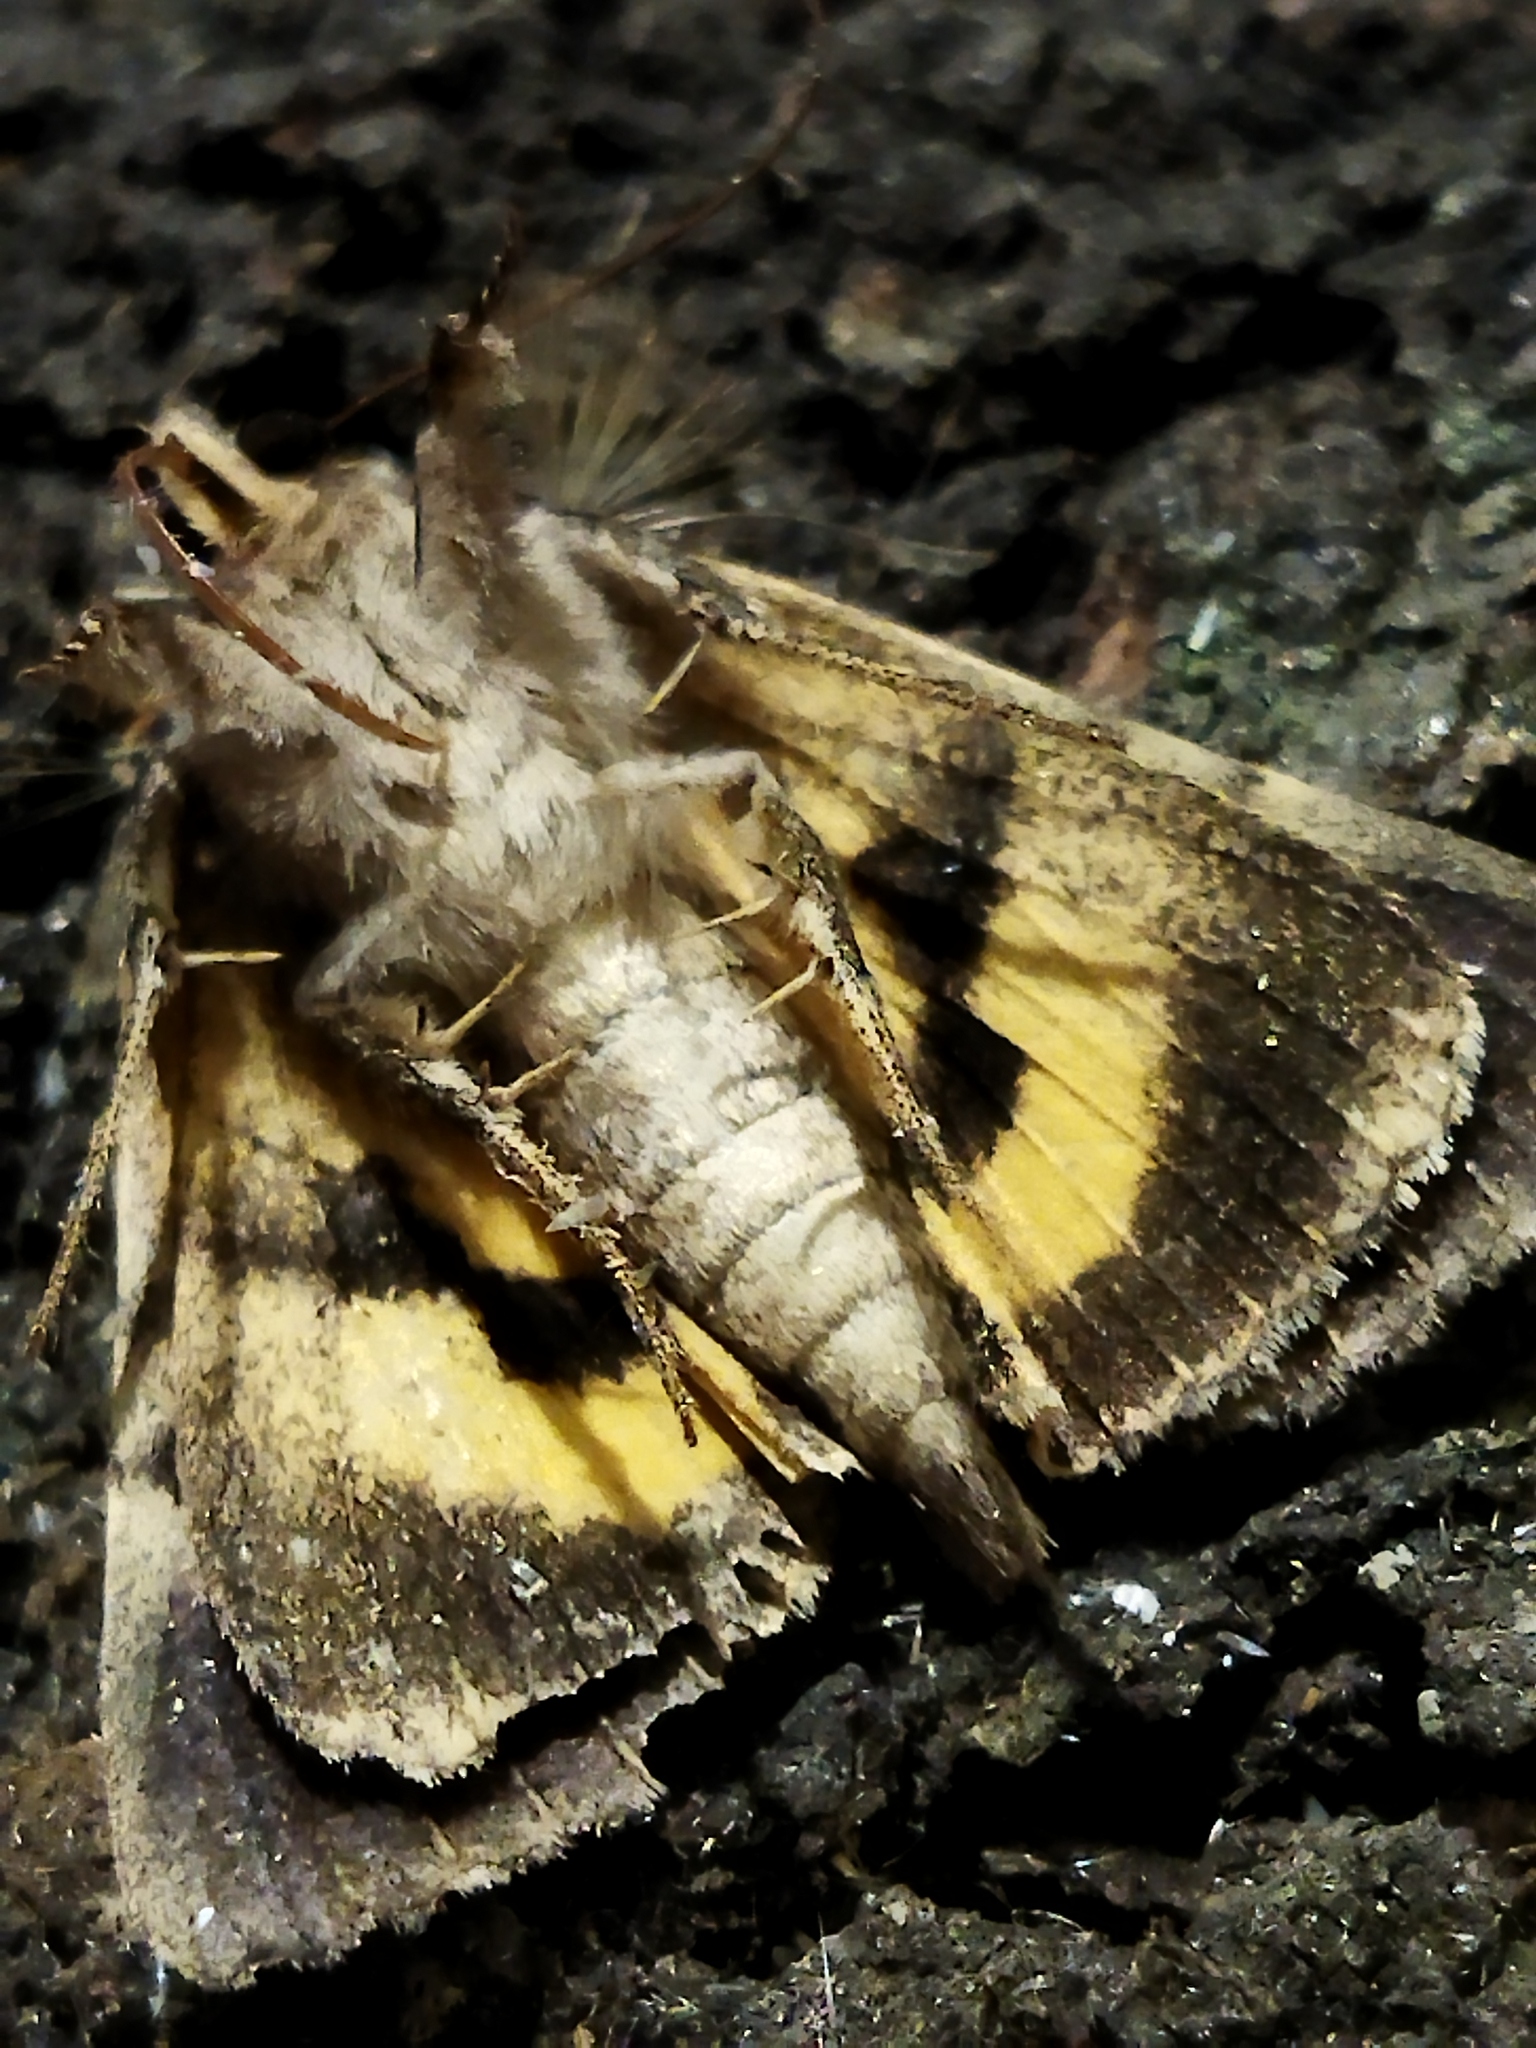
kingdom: Animalia
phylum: Arthropoda
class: Insecta
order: Lepidoptera
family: Erebidae
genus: Catocala
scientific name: Catocala hymenaea
